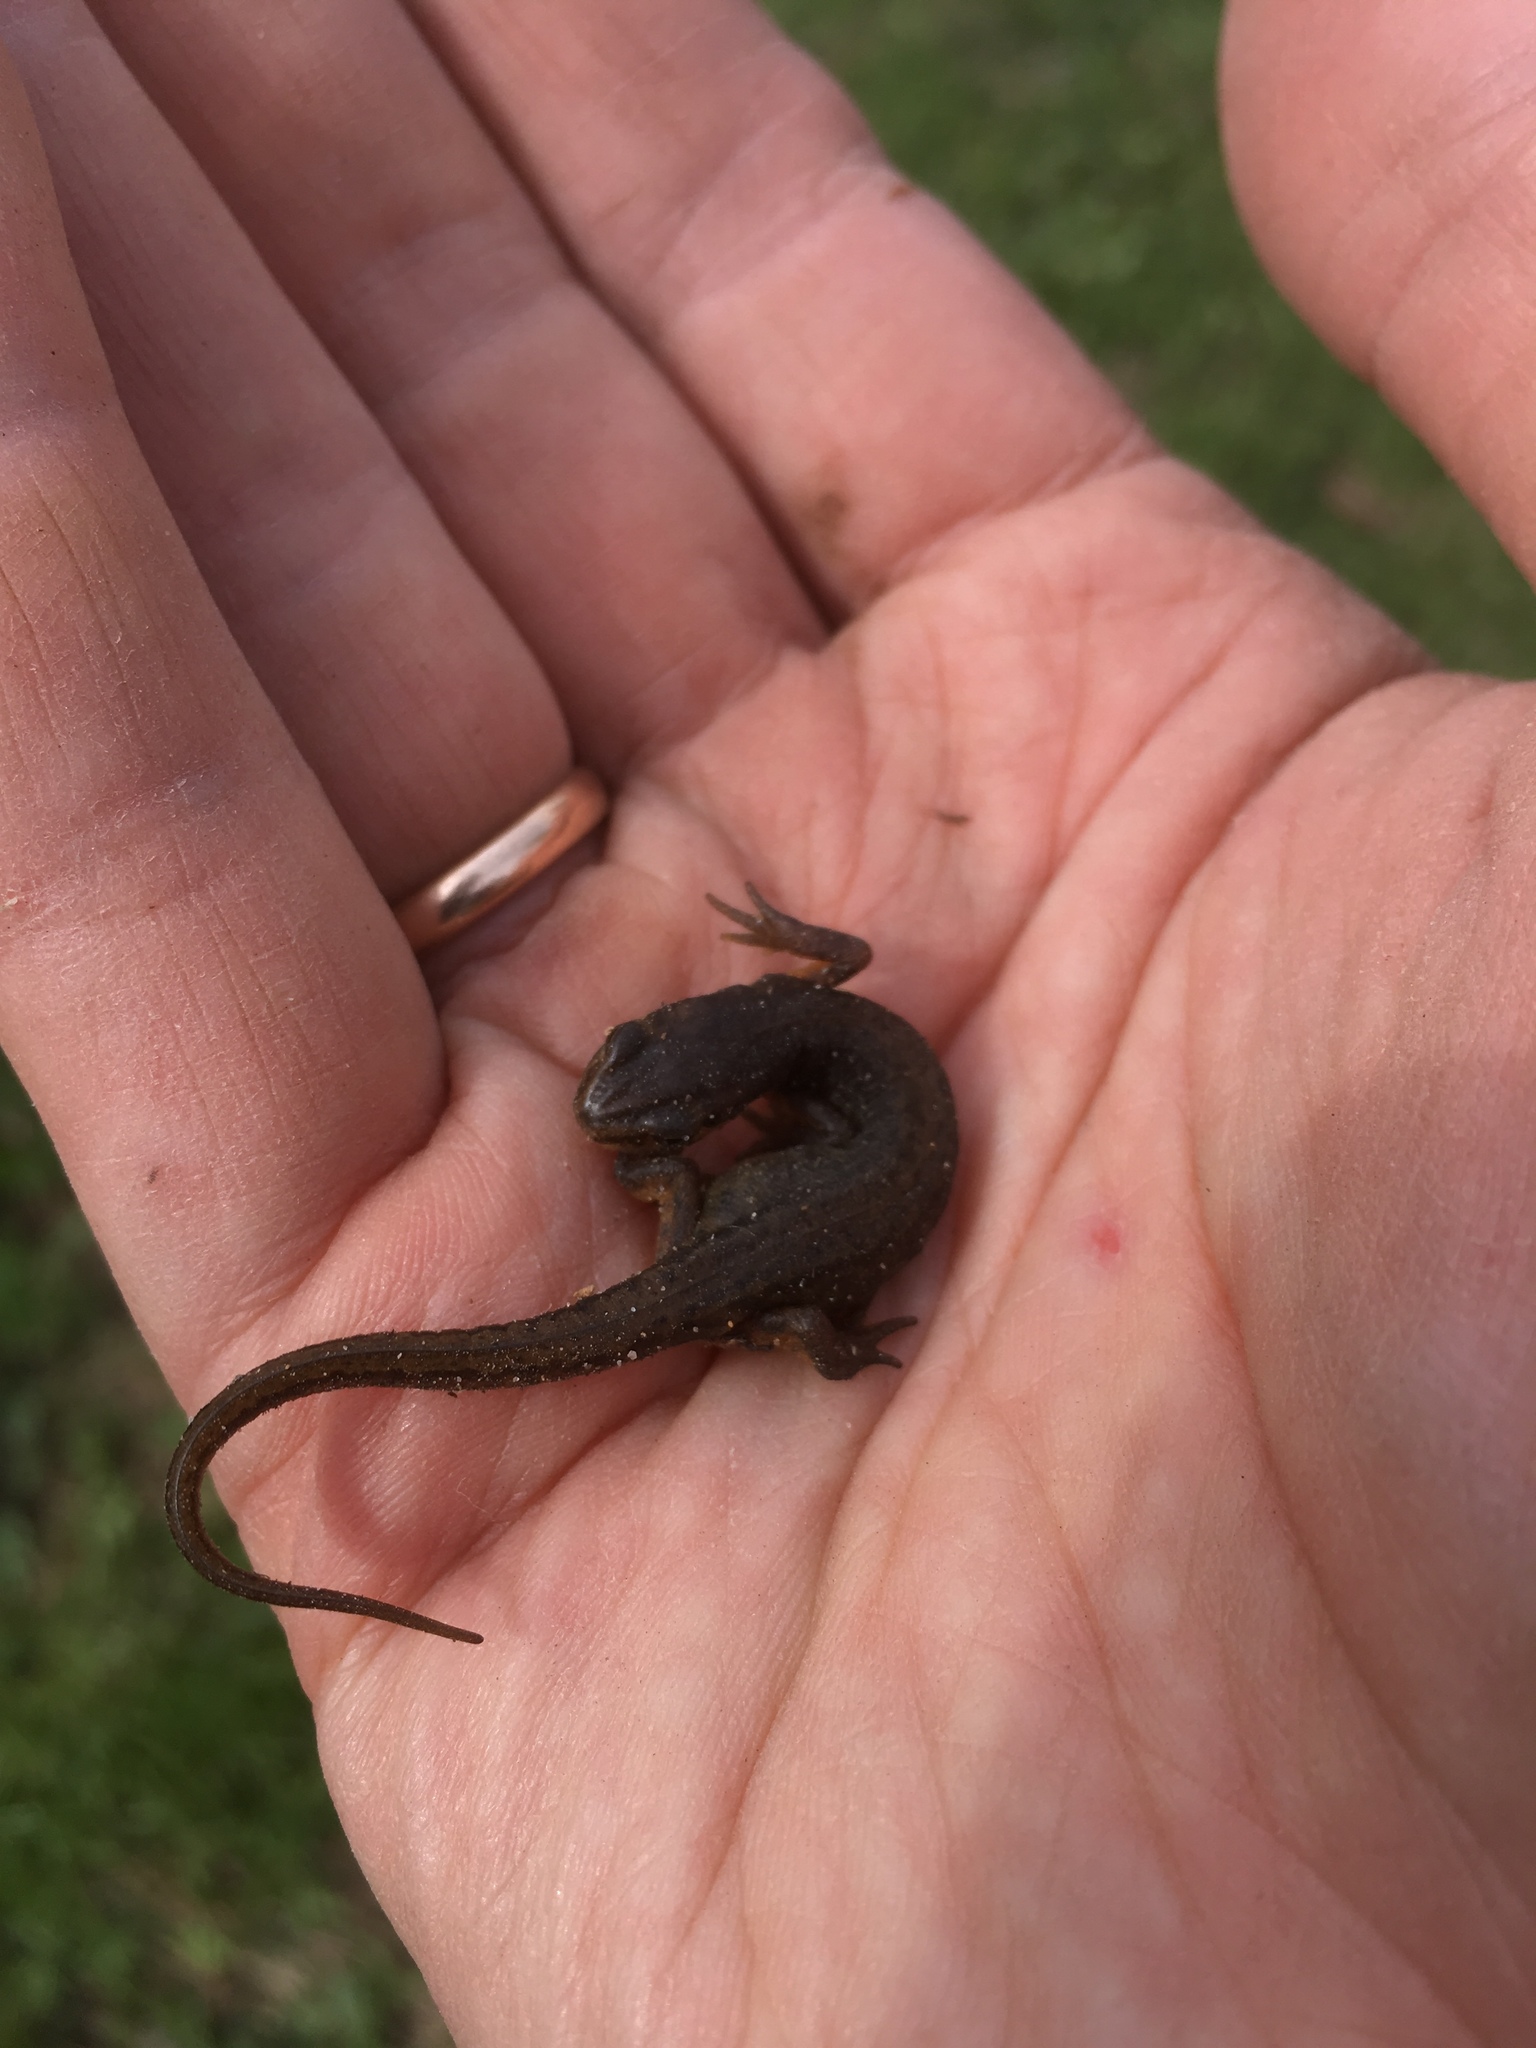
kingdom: Animalia
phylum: Chordata
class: Amphibia
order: Caudata
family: Salamandridae
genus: Lissotriton
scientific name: Lissotriton vulgaris
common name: Smooth newt
